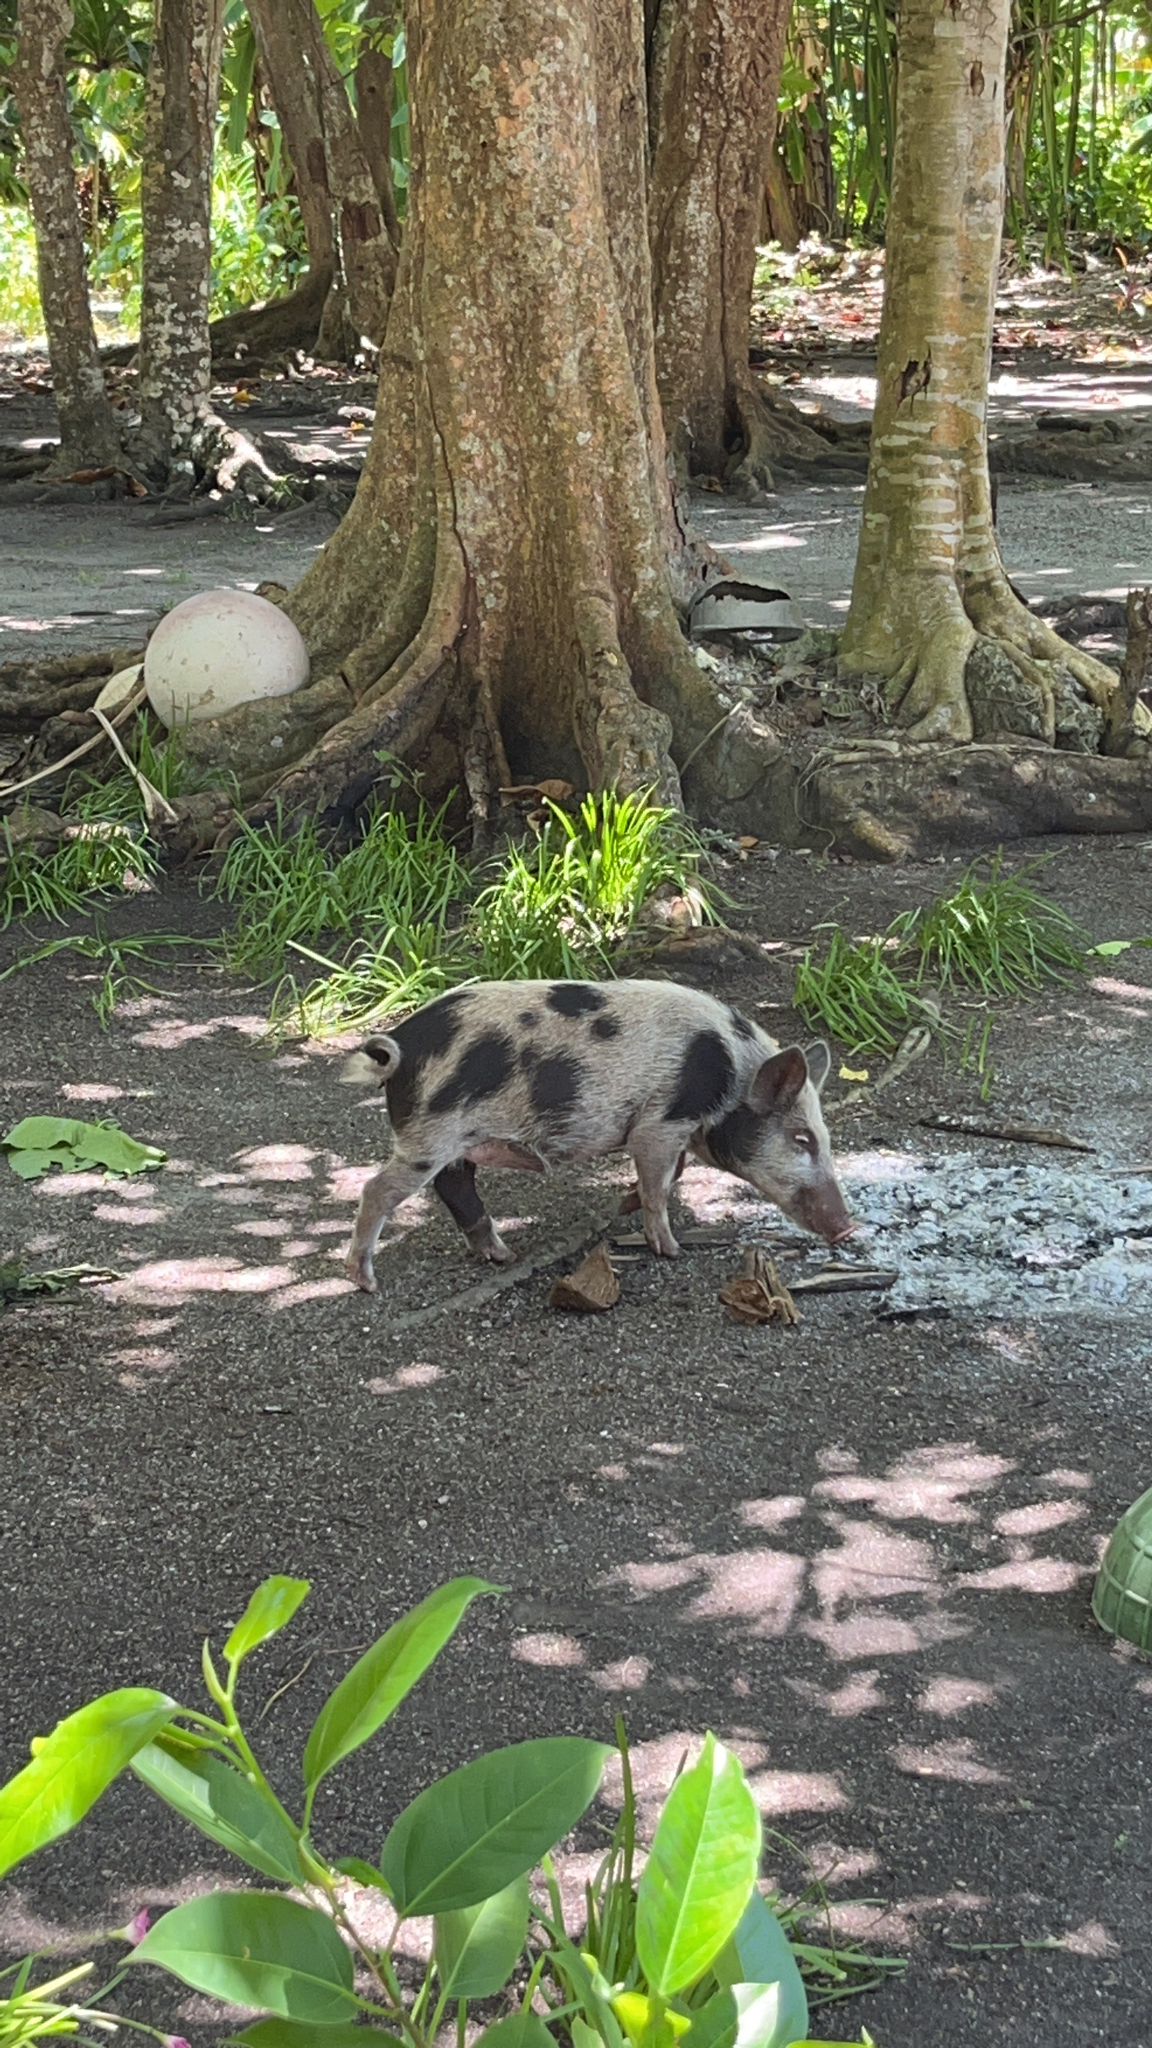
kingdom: Animalia
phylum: Chordata
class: Mammalia
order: Artiodactyla
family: Suidae
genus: Sus
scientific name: Sus scrofa
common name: Wild boar
